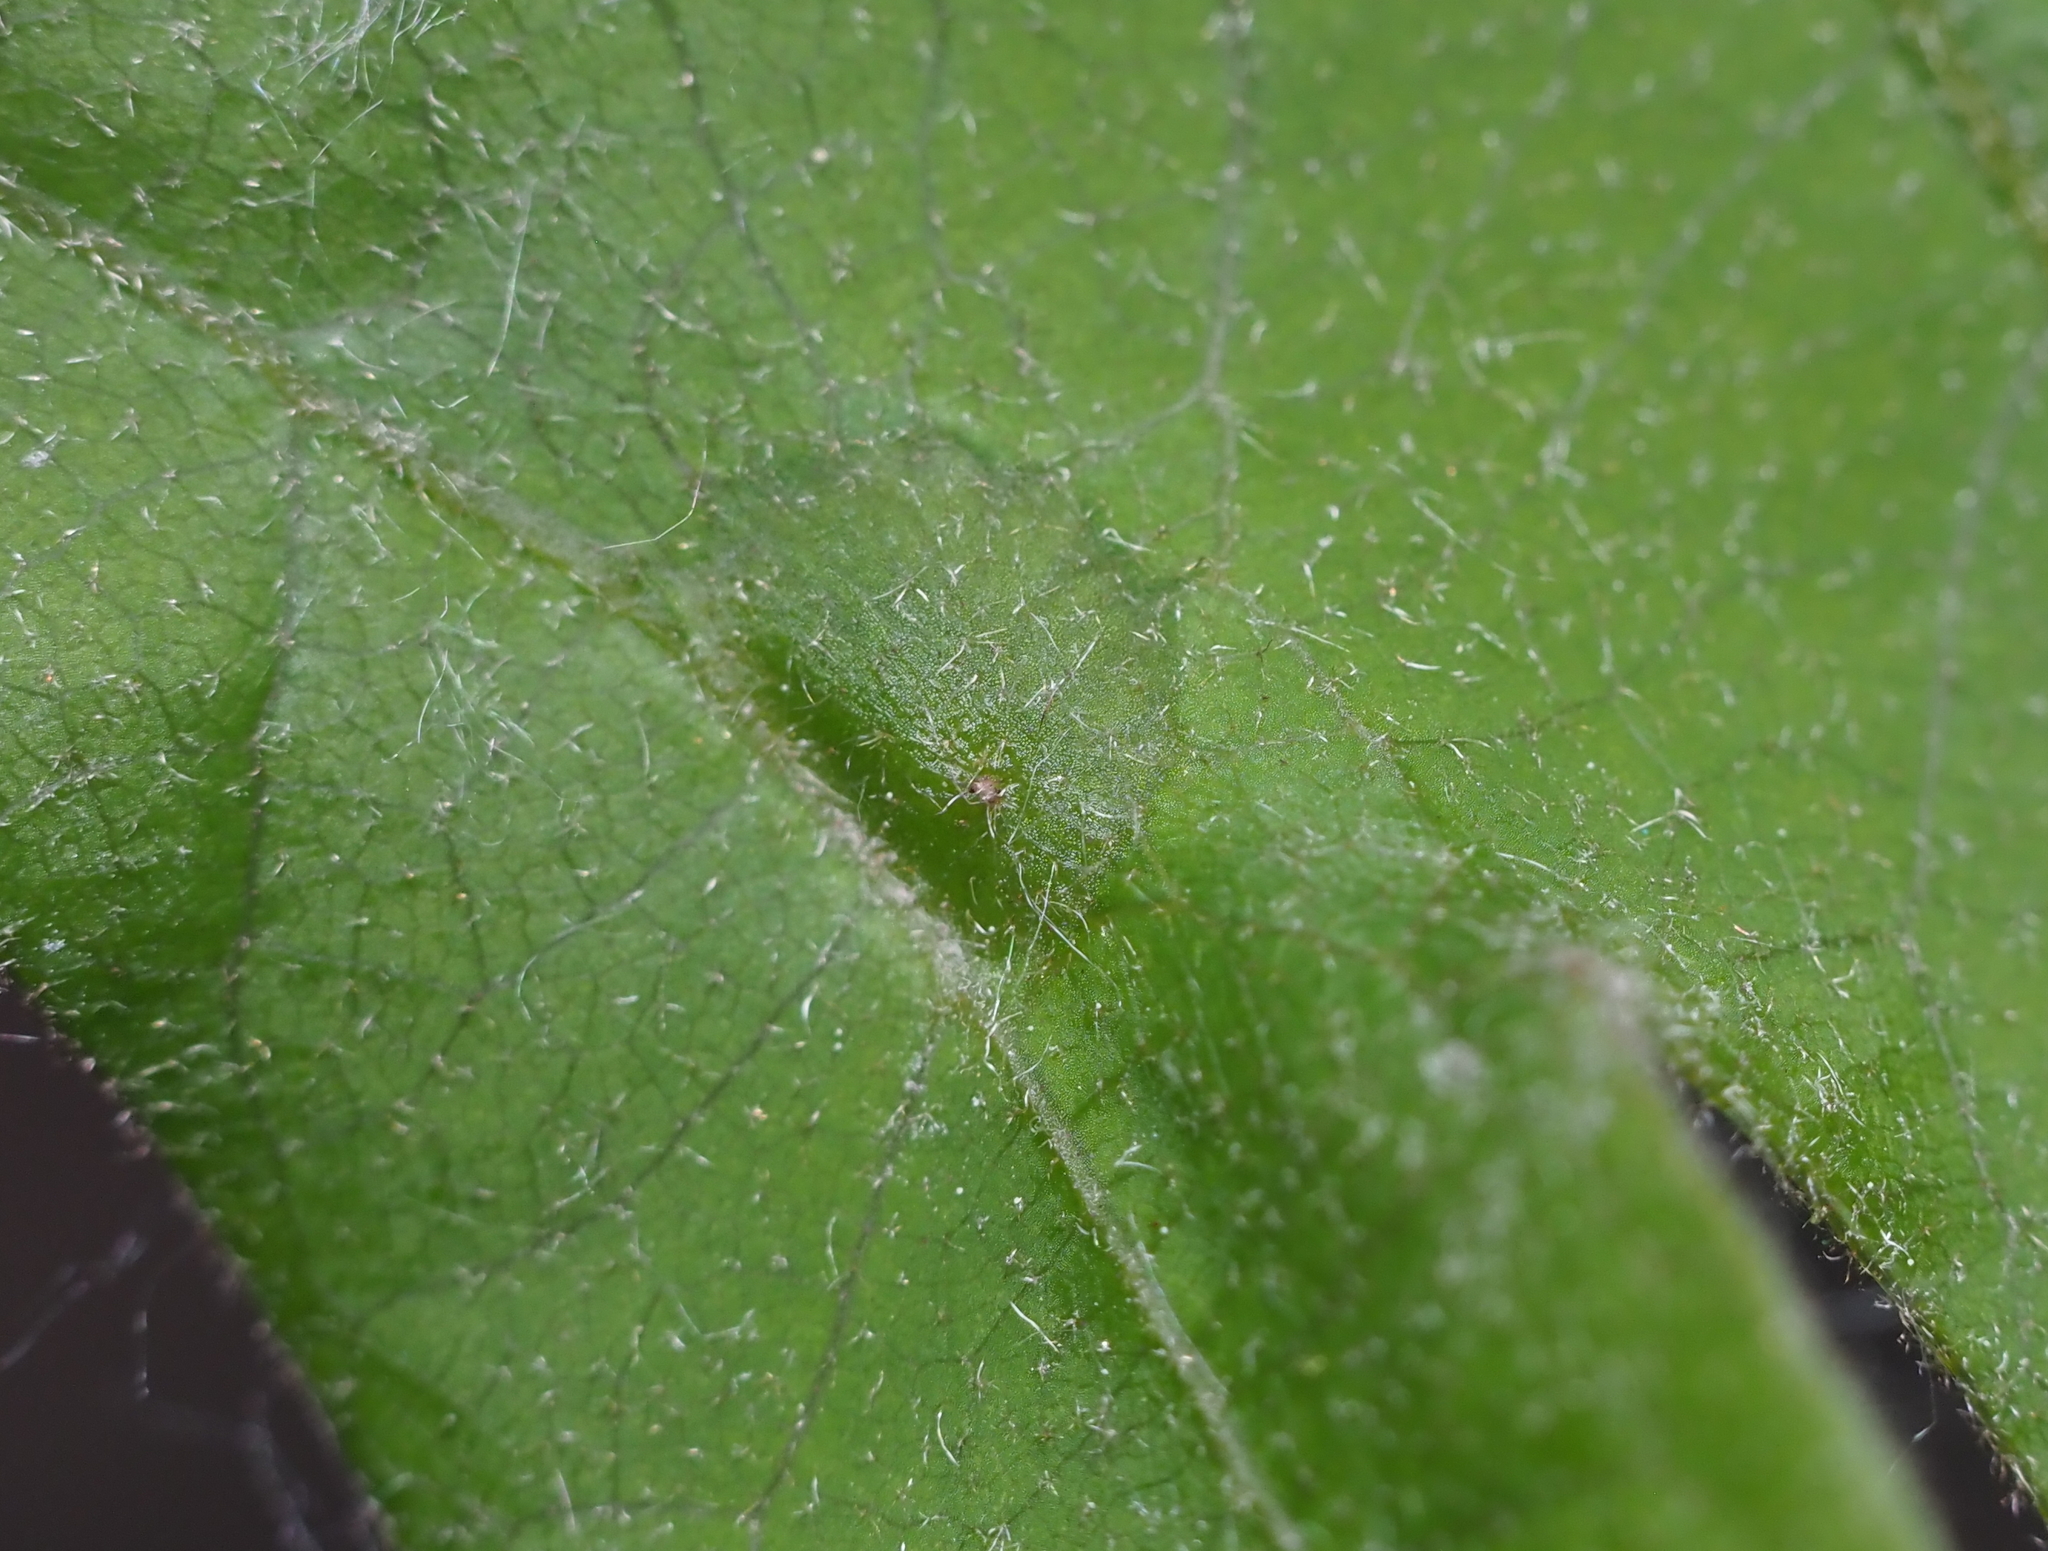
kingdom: Animalia
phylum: Arthropoda
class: Insecta
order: Hymenoptera
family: Cynipidae
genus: Dryocosmus
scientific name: Dryocosmus
